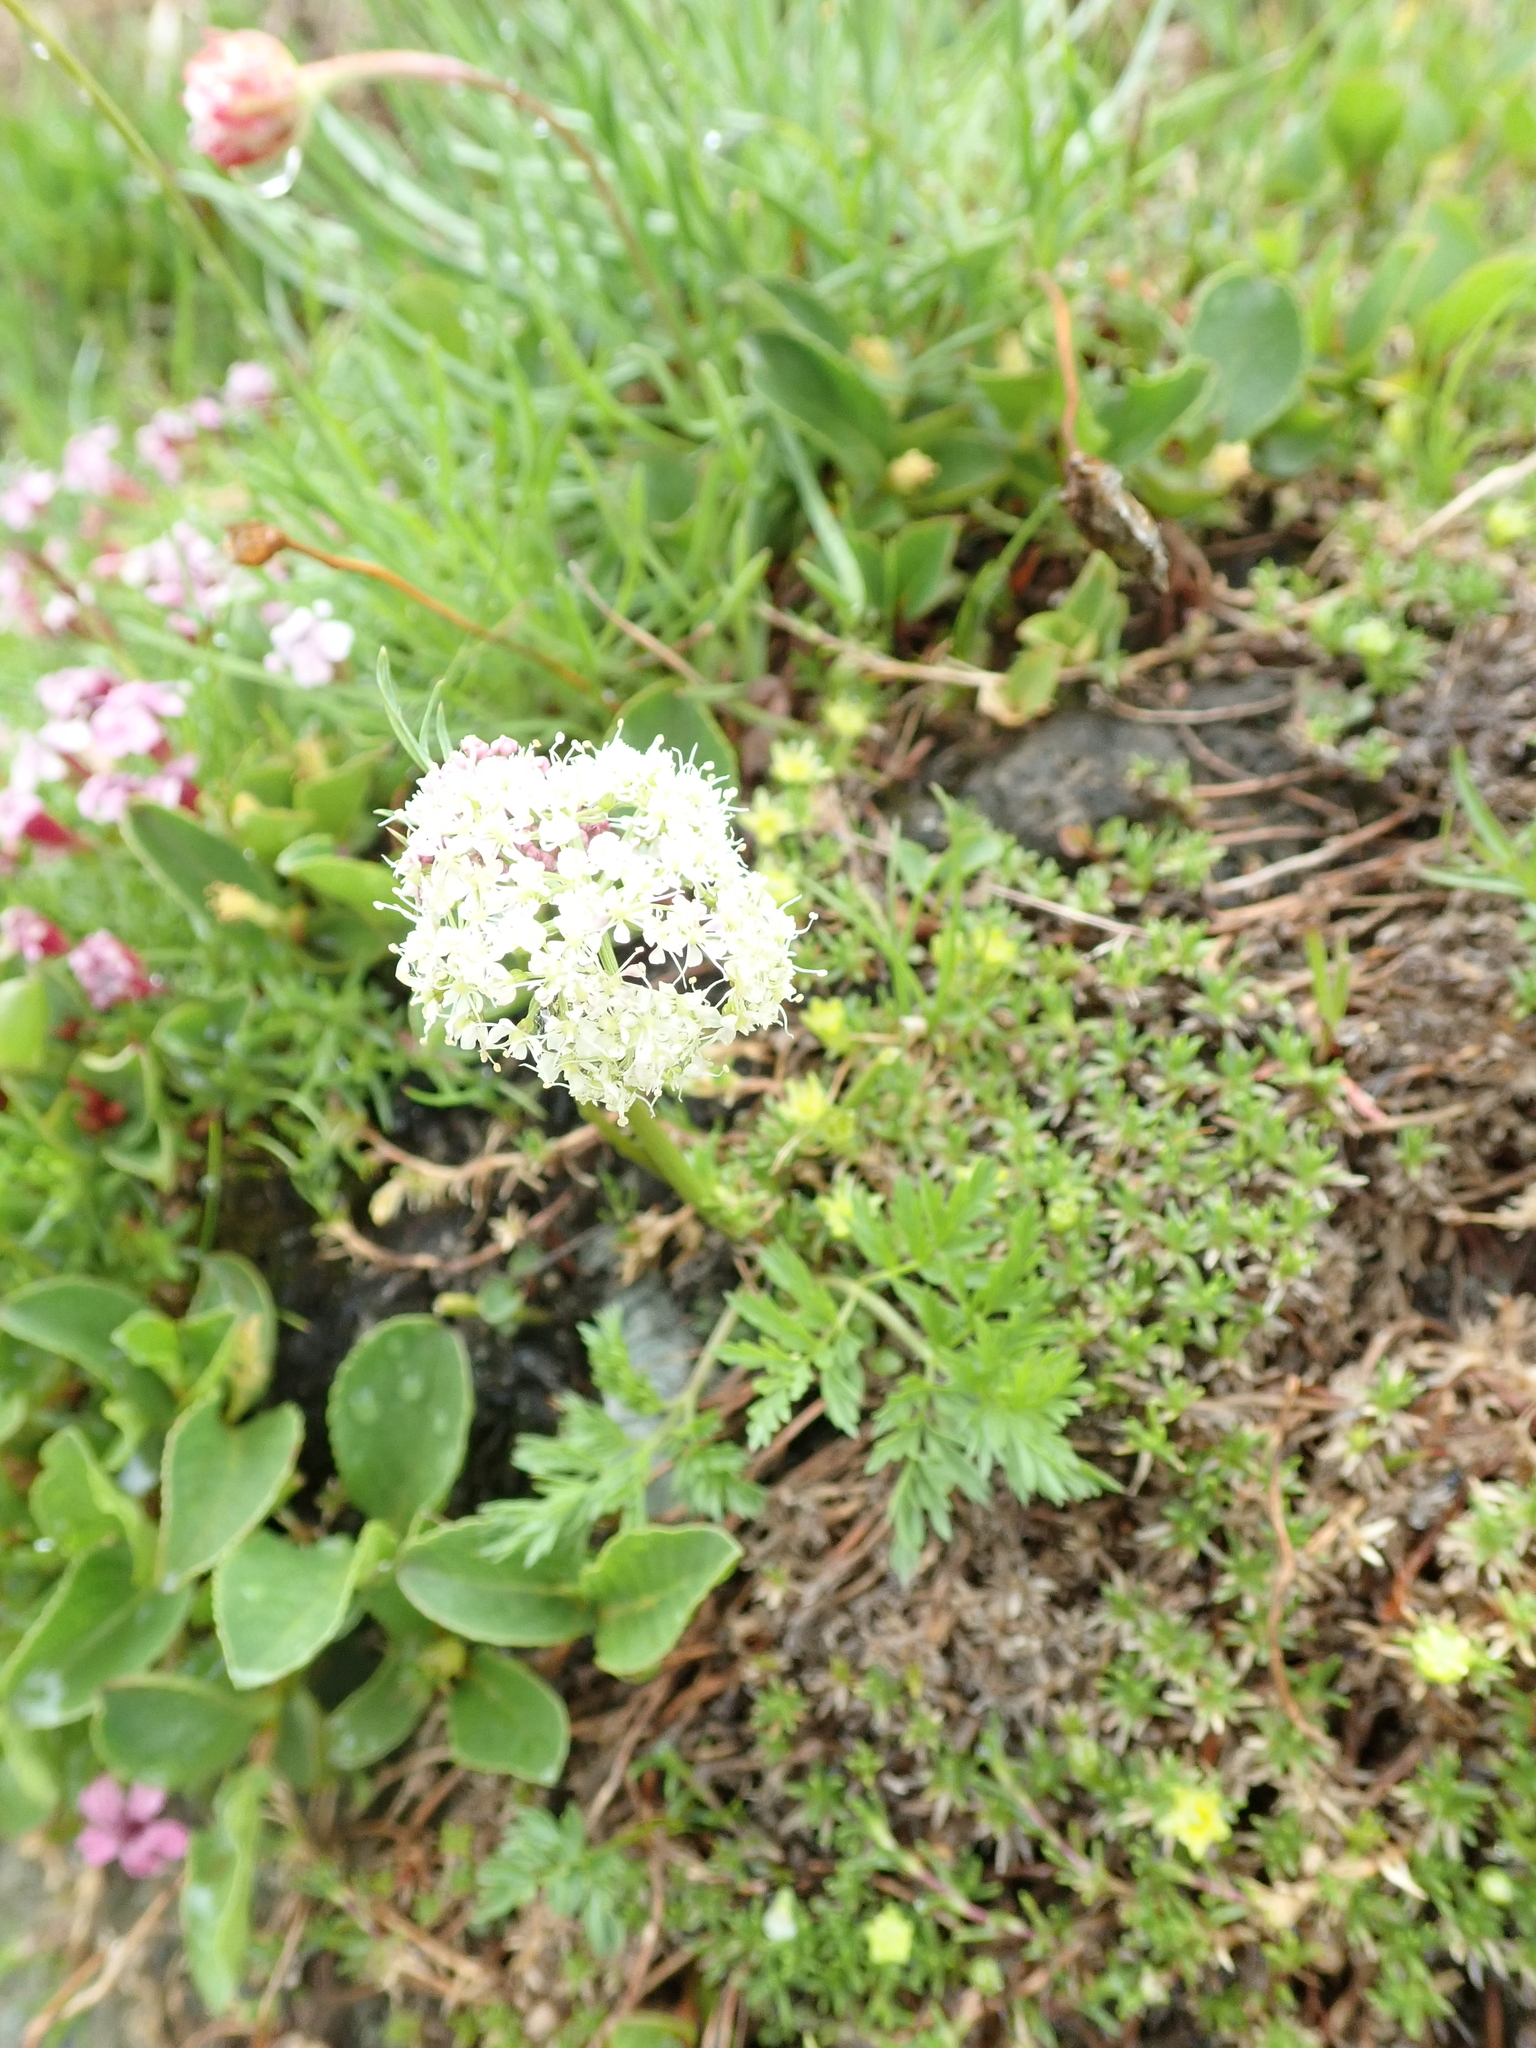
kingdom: Plantae
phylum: Tracheophyta
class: Magnoliopsida
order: Apiales
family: Apiaceae
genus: Pachypleurum
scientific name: Pachypleurum mutellinoides
